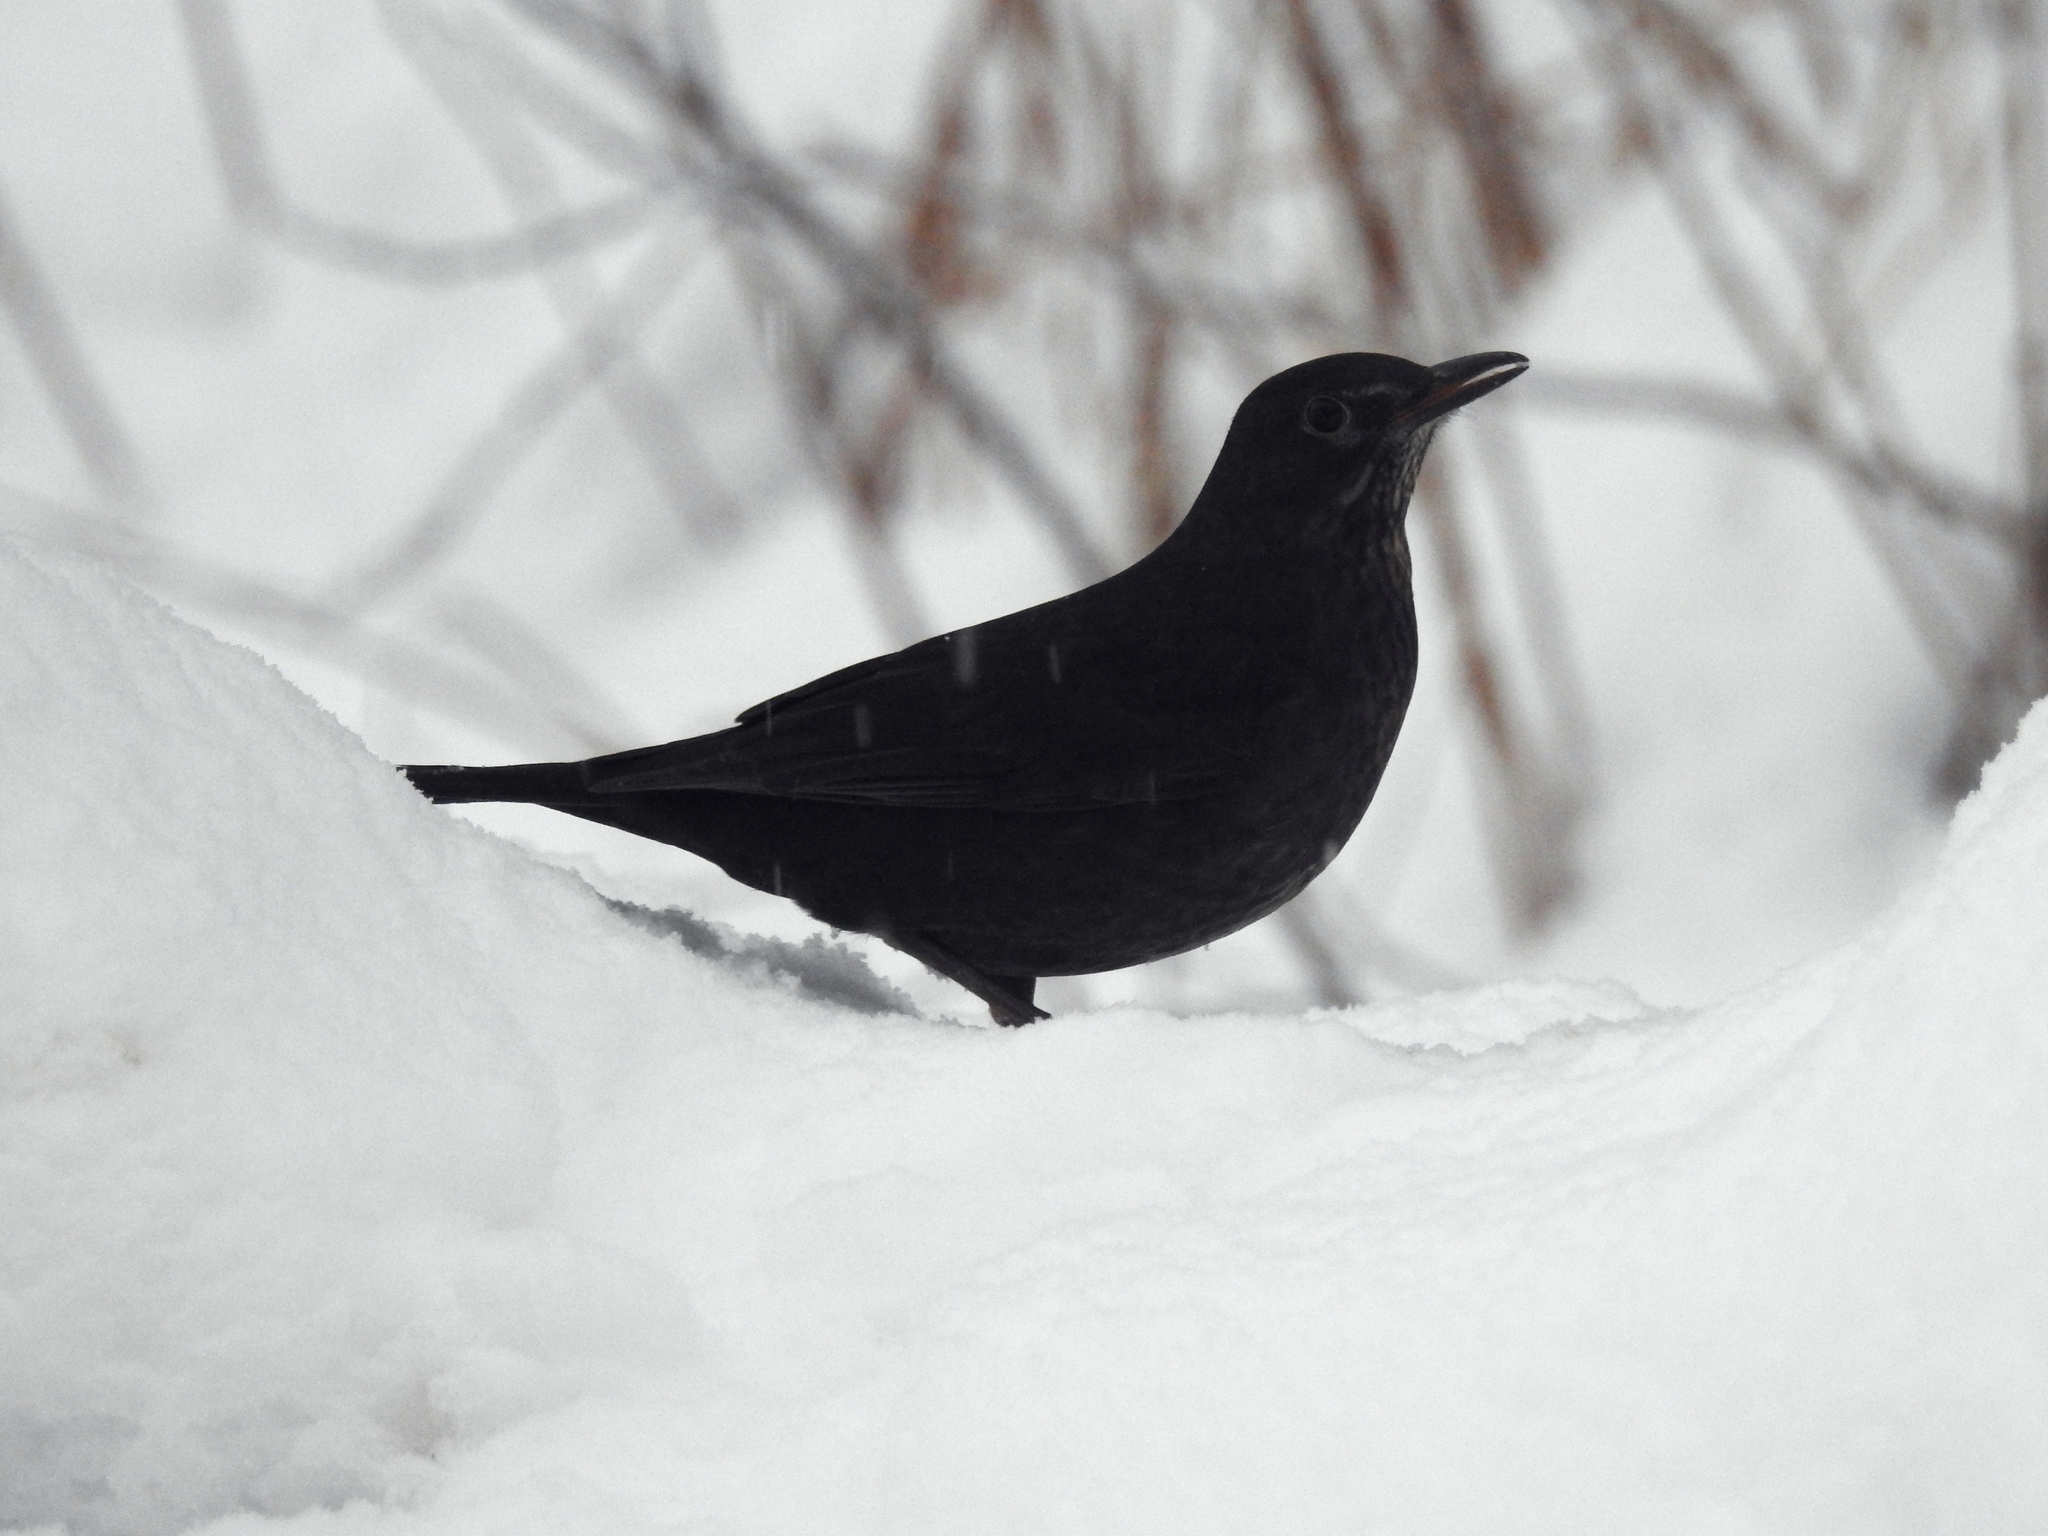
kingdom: Animalia
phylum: Chordata
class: Aves
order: Passeriformes
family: Turdidae
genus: Turdus
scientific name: Turdus merula
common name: Common blackbird
